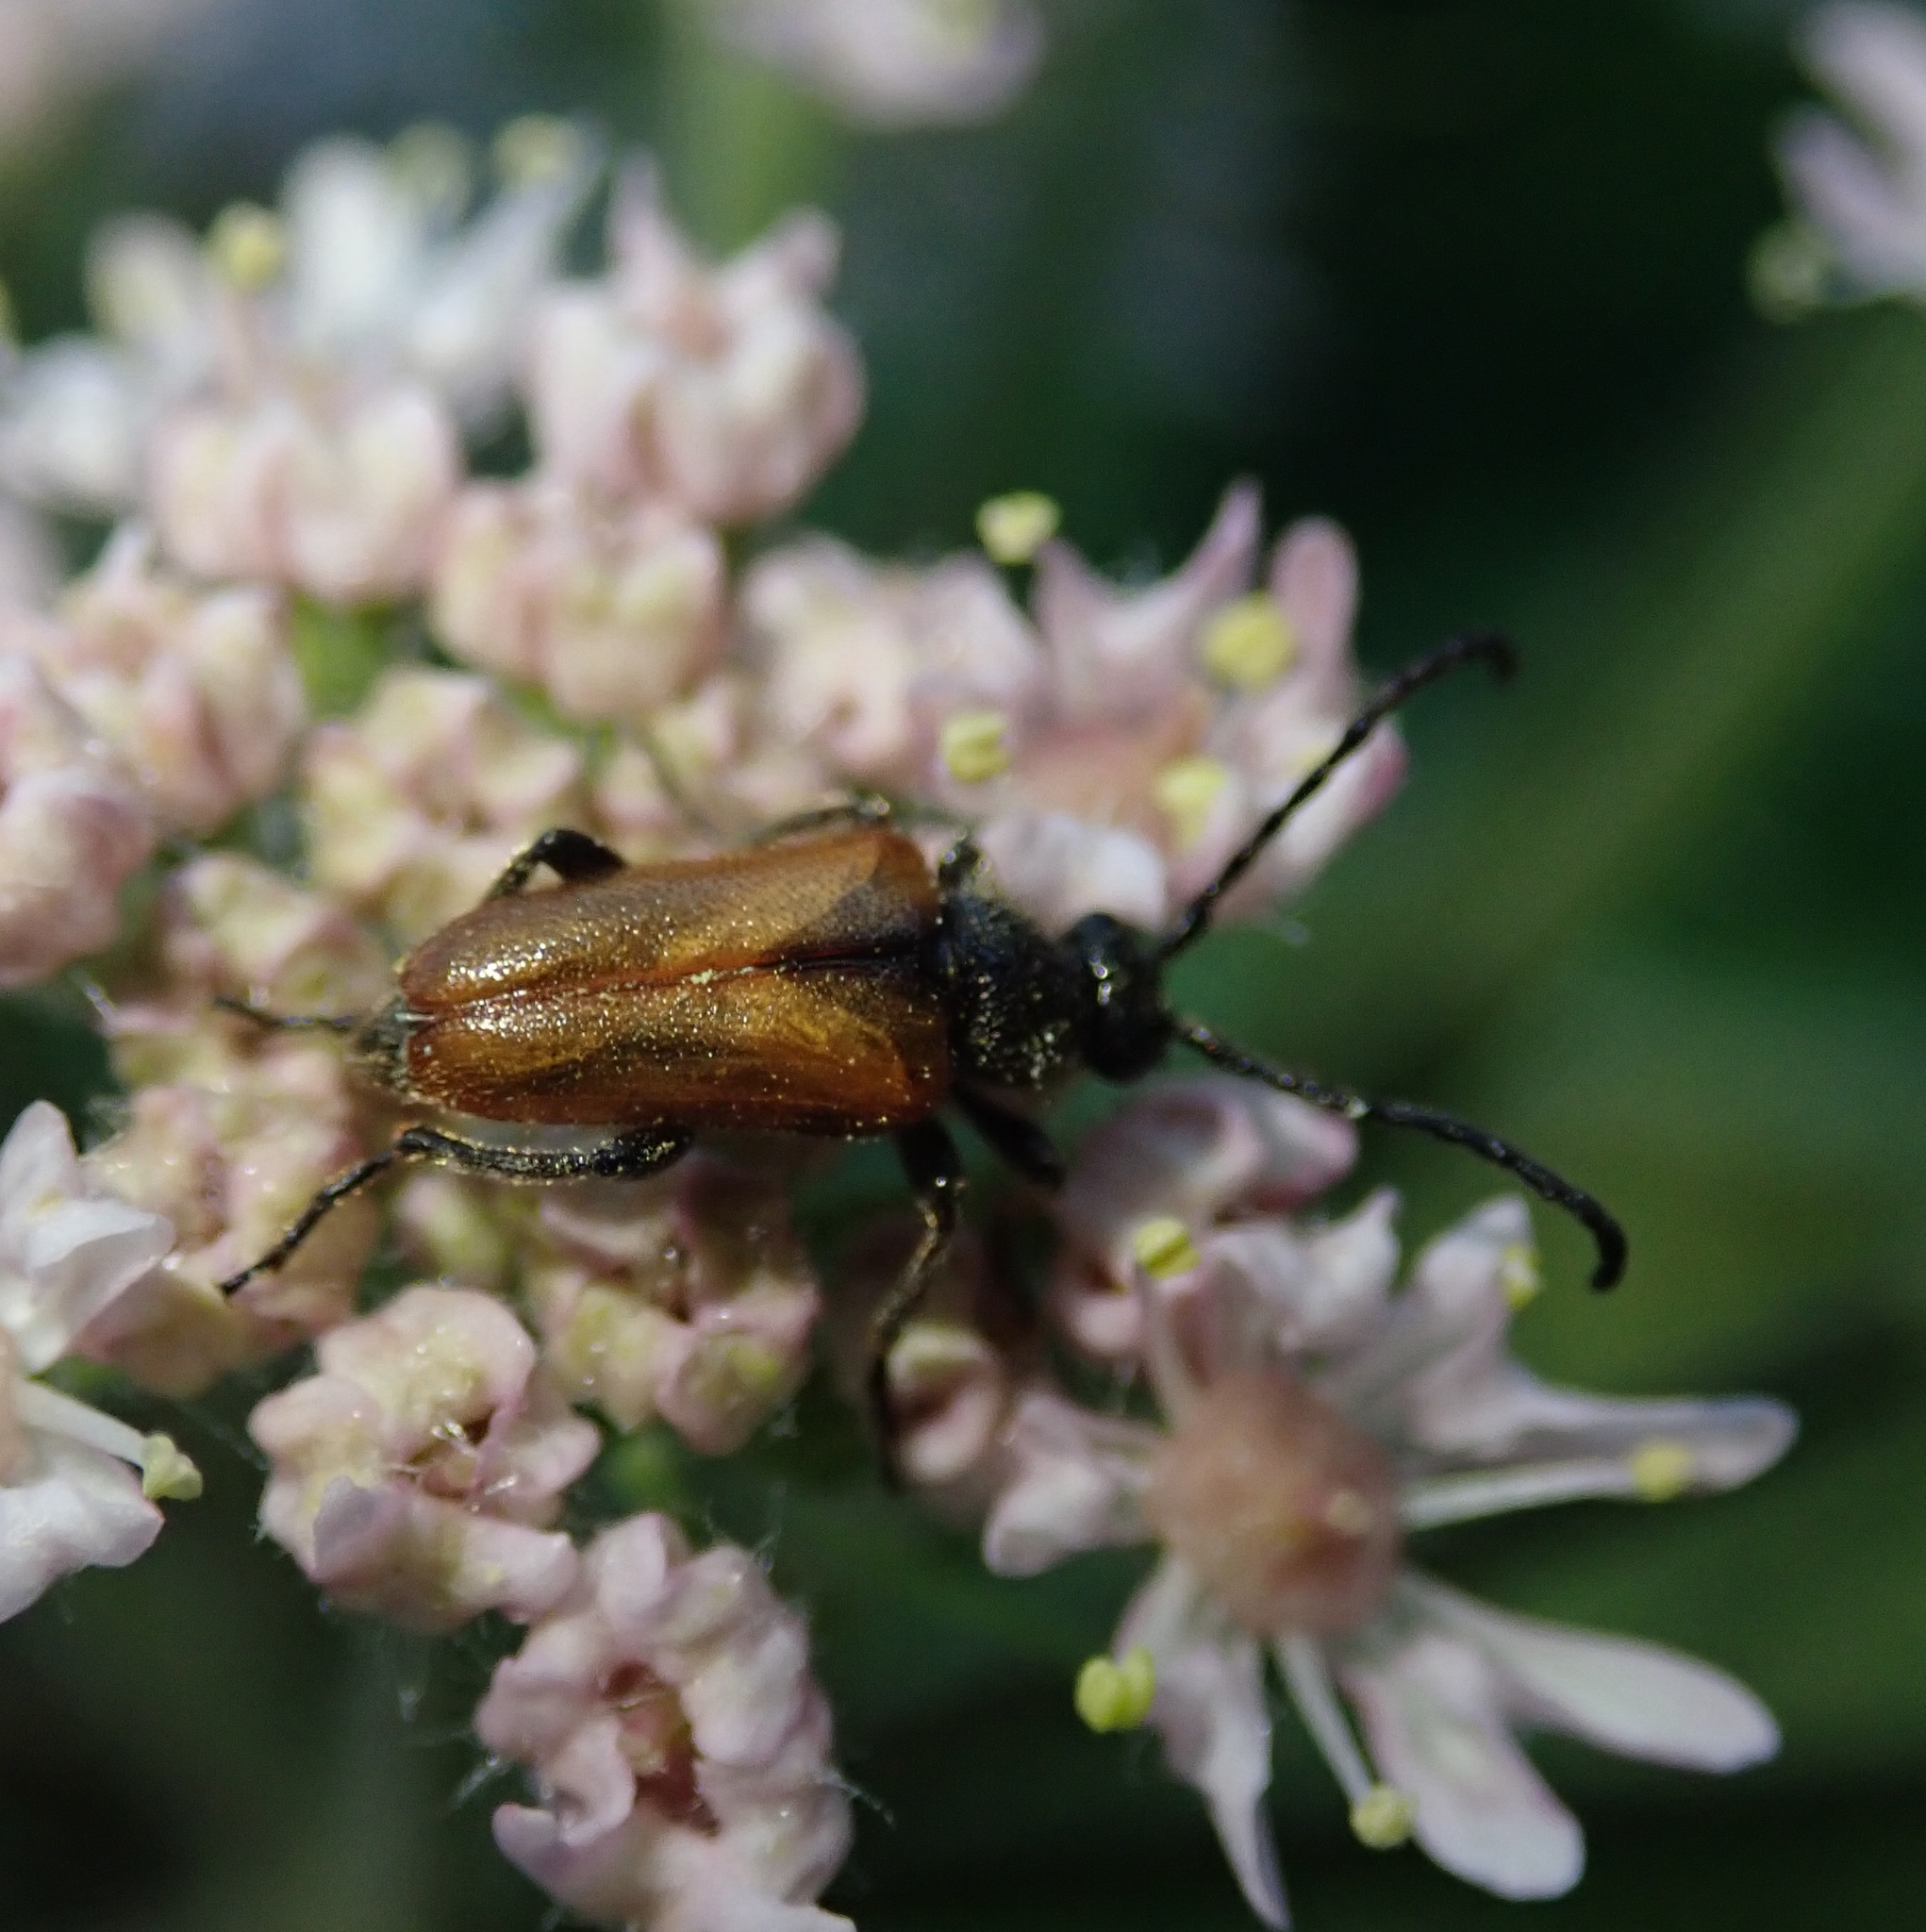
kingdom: Animalia
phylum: Arthropoda
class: Insecta
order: Coleoptera
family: Cerambycidae
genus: Pseudovadonia
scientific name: Pseudovadonia livida
